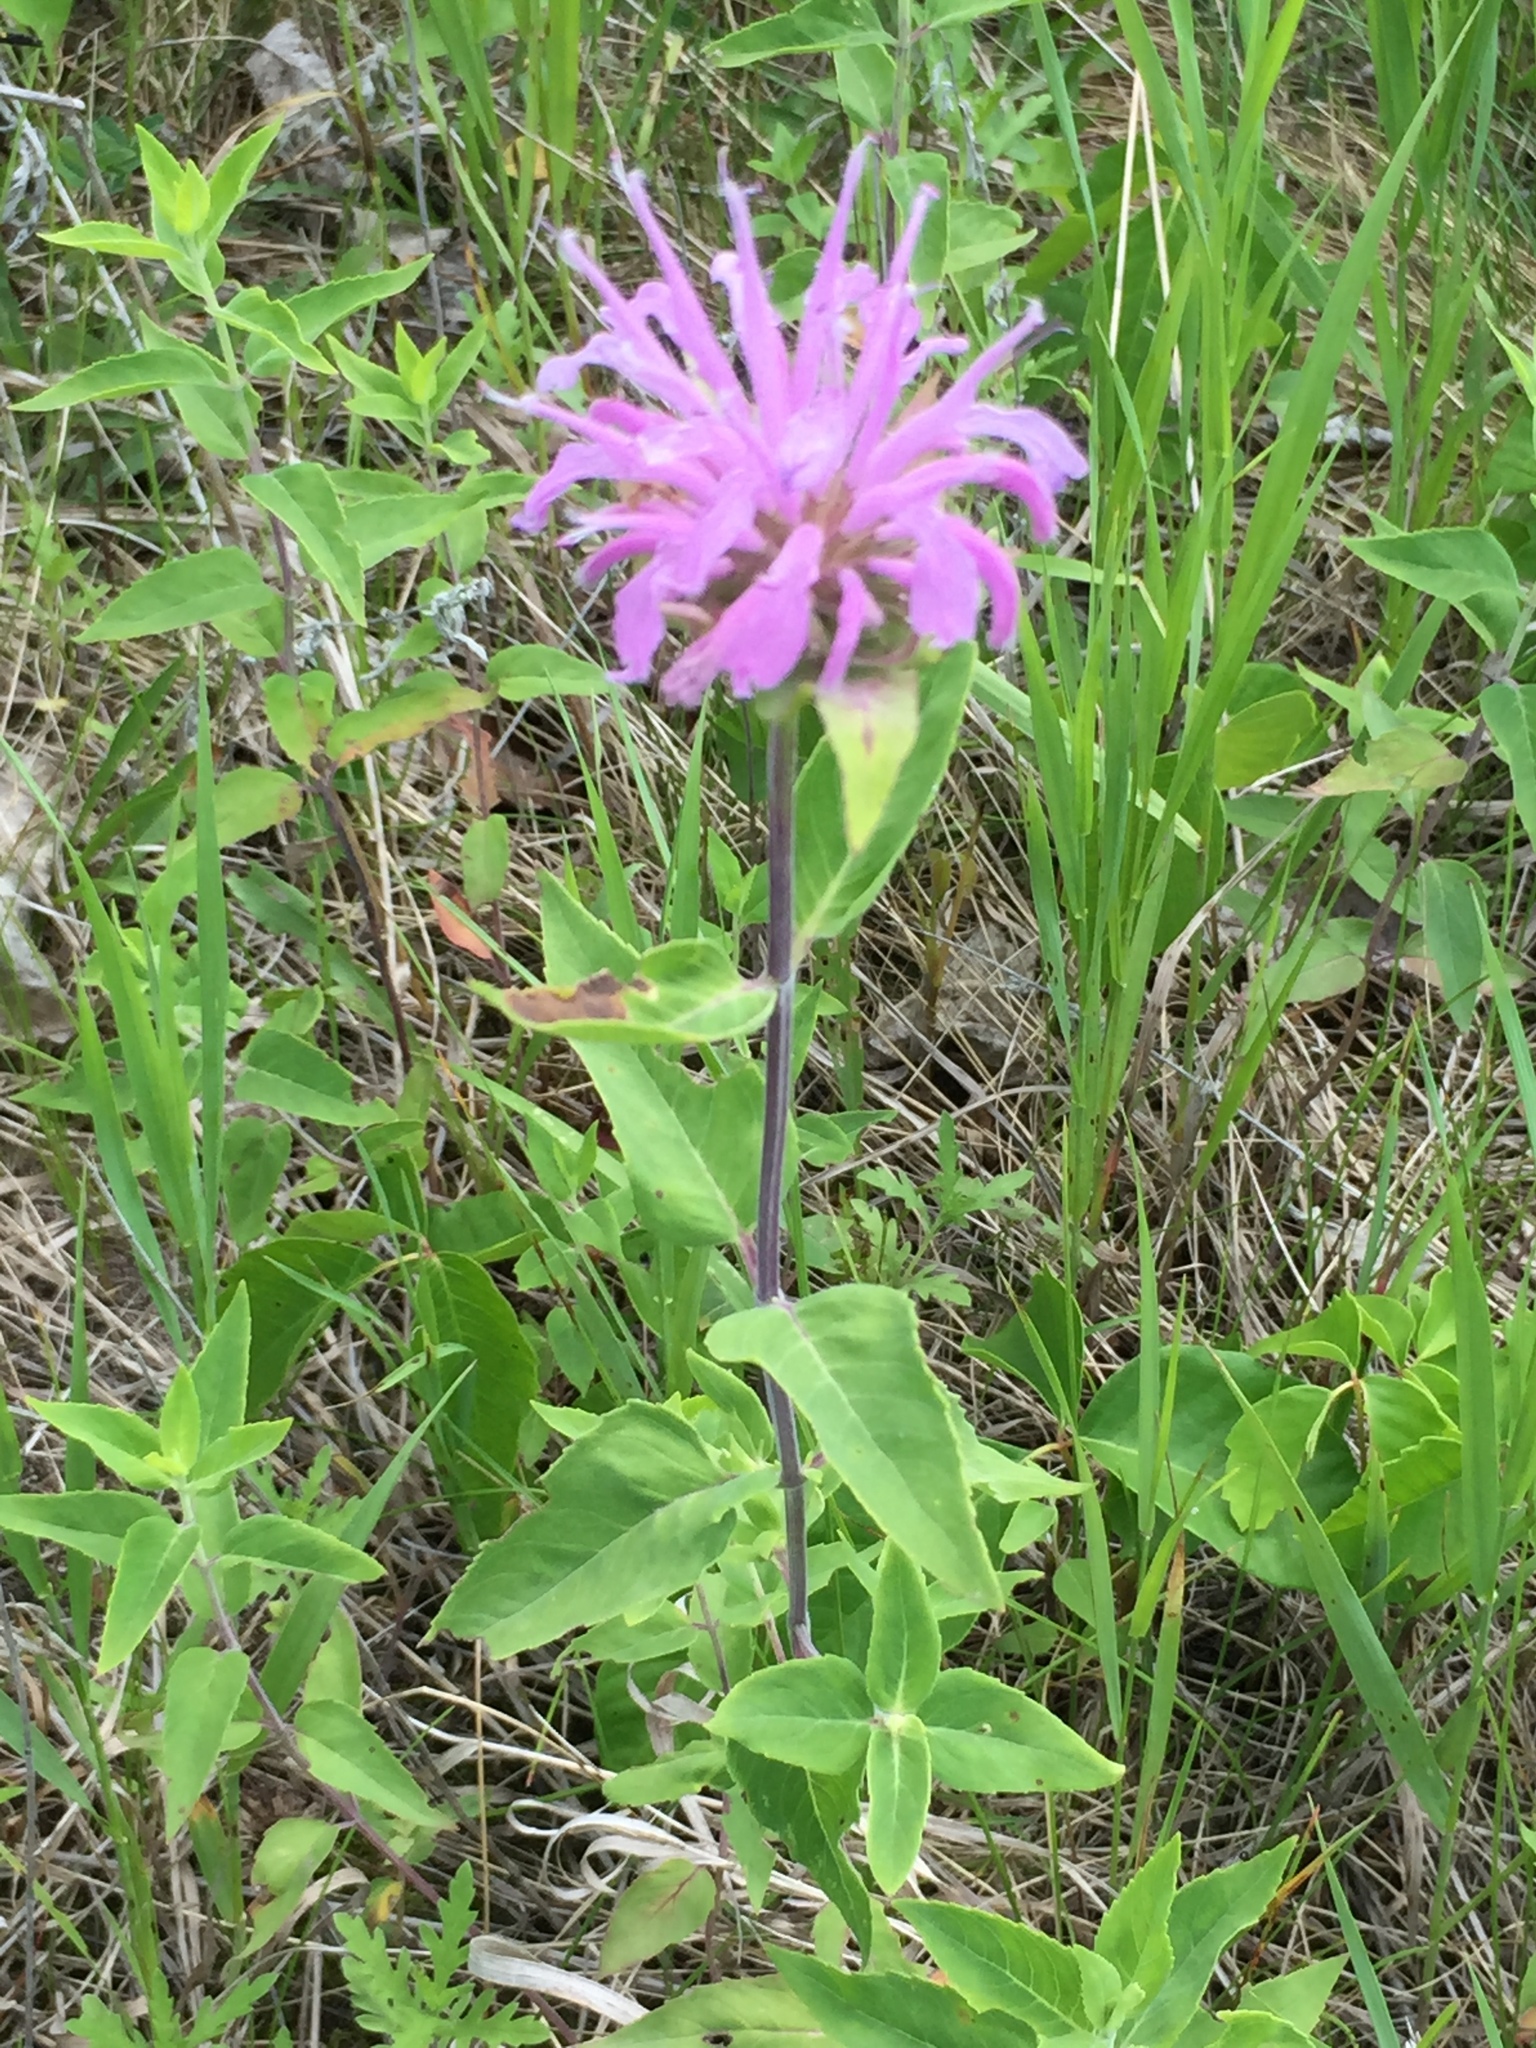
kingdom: Plantae
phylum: Tracheophyta
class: Magnoliopsida
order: Lamiales
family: Lamiaceae
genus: Monarda
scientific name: Monarda fistulosa
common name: Purple beebalm
